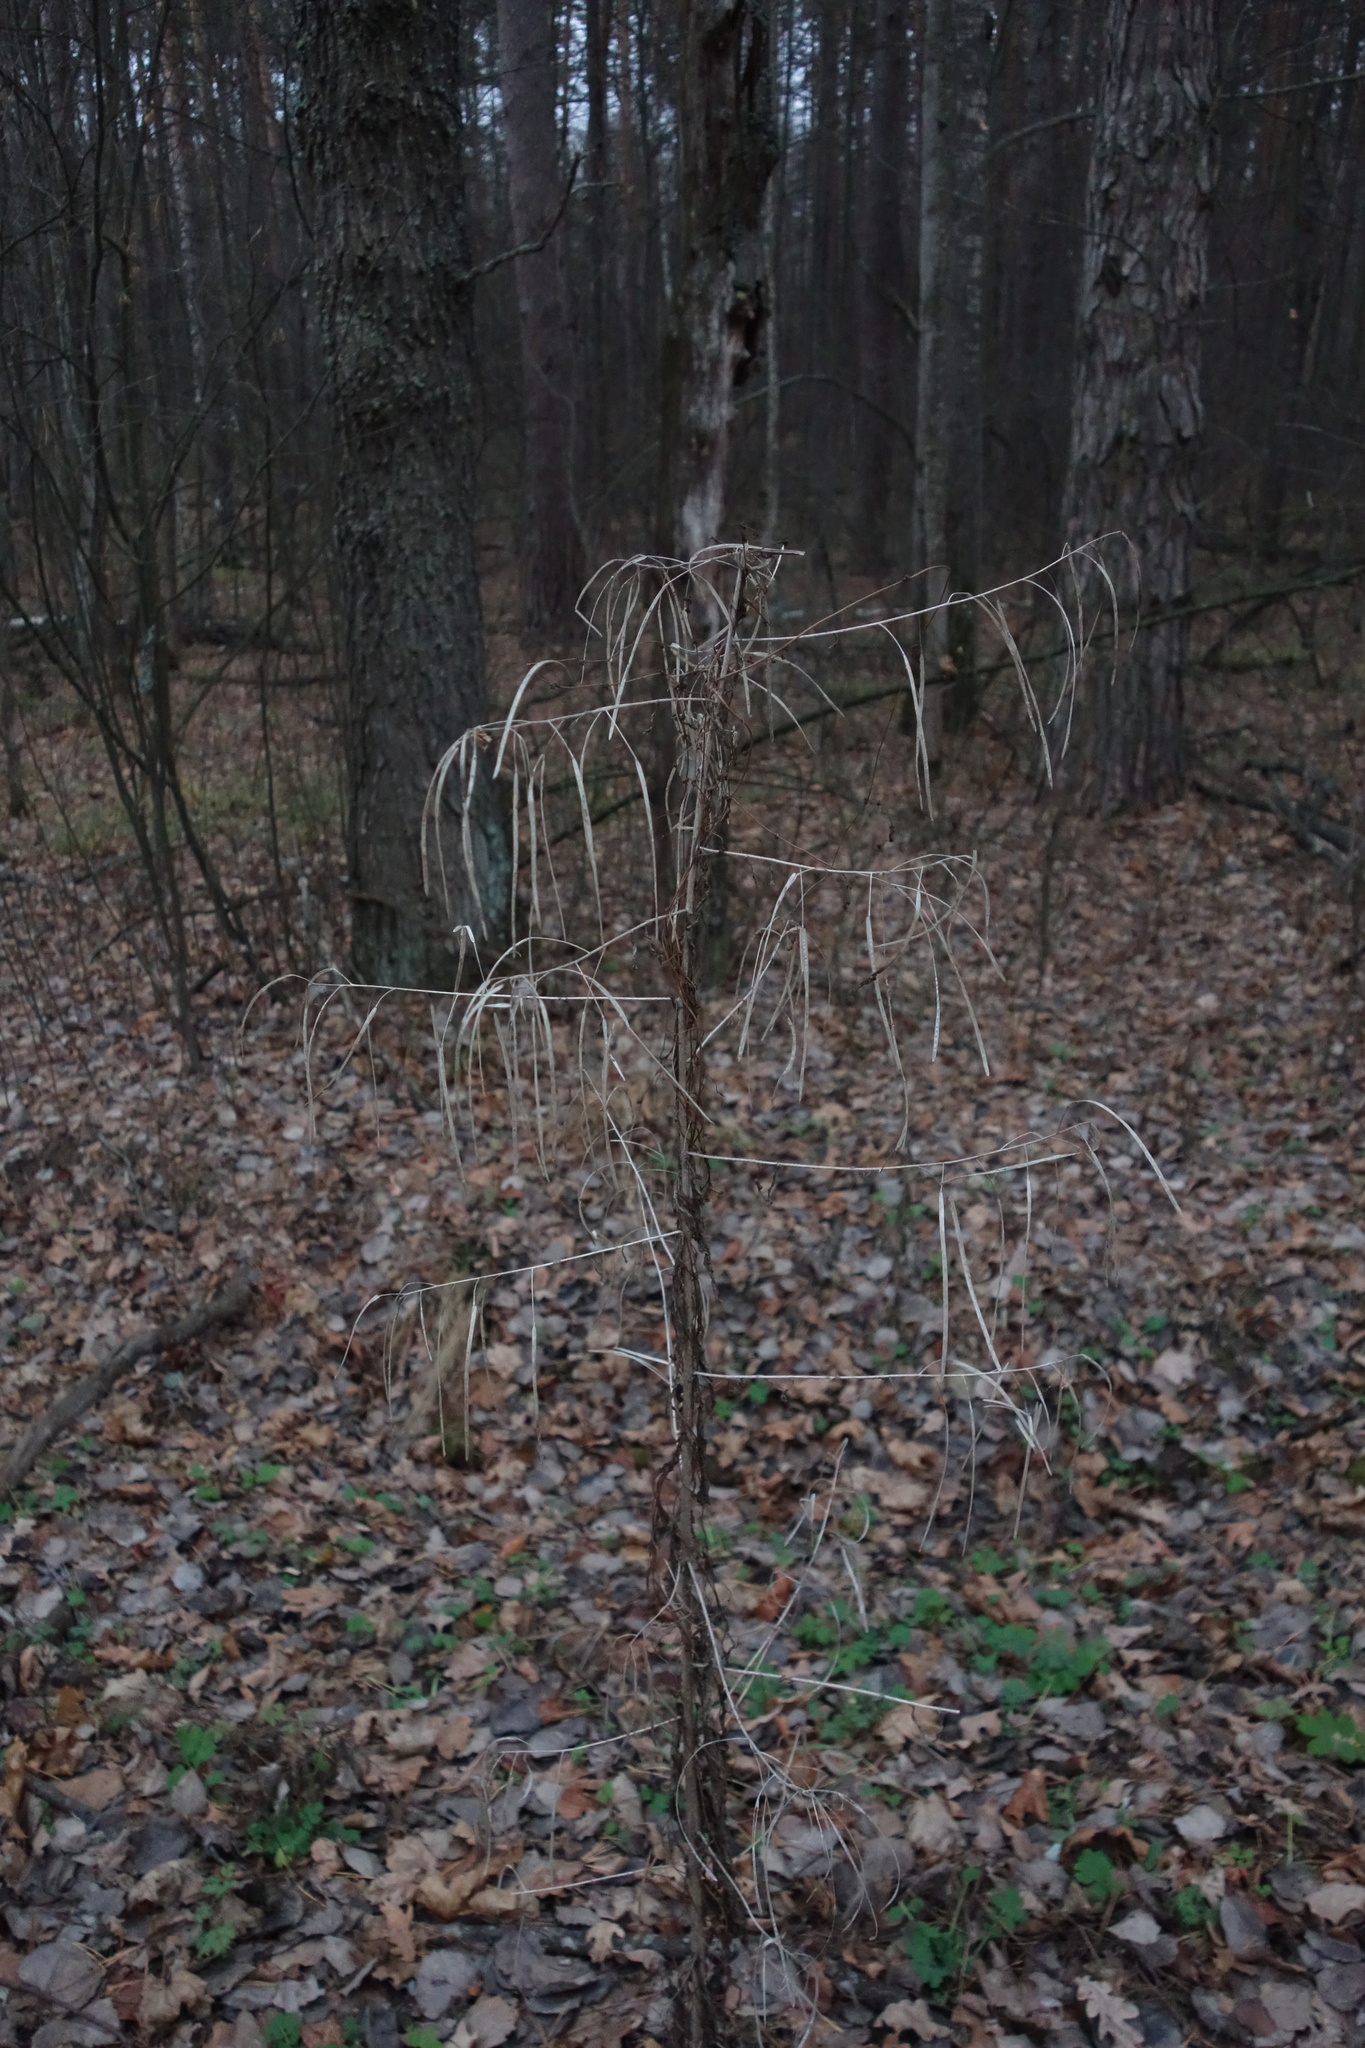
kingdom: Plantae
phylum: Tracheophyta
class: Magnoliopsida
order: Brassicales
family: Brassicaceae
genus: Catolobus
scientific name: Catolobus pendulus
